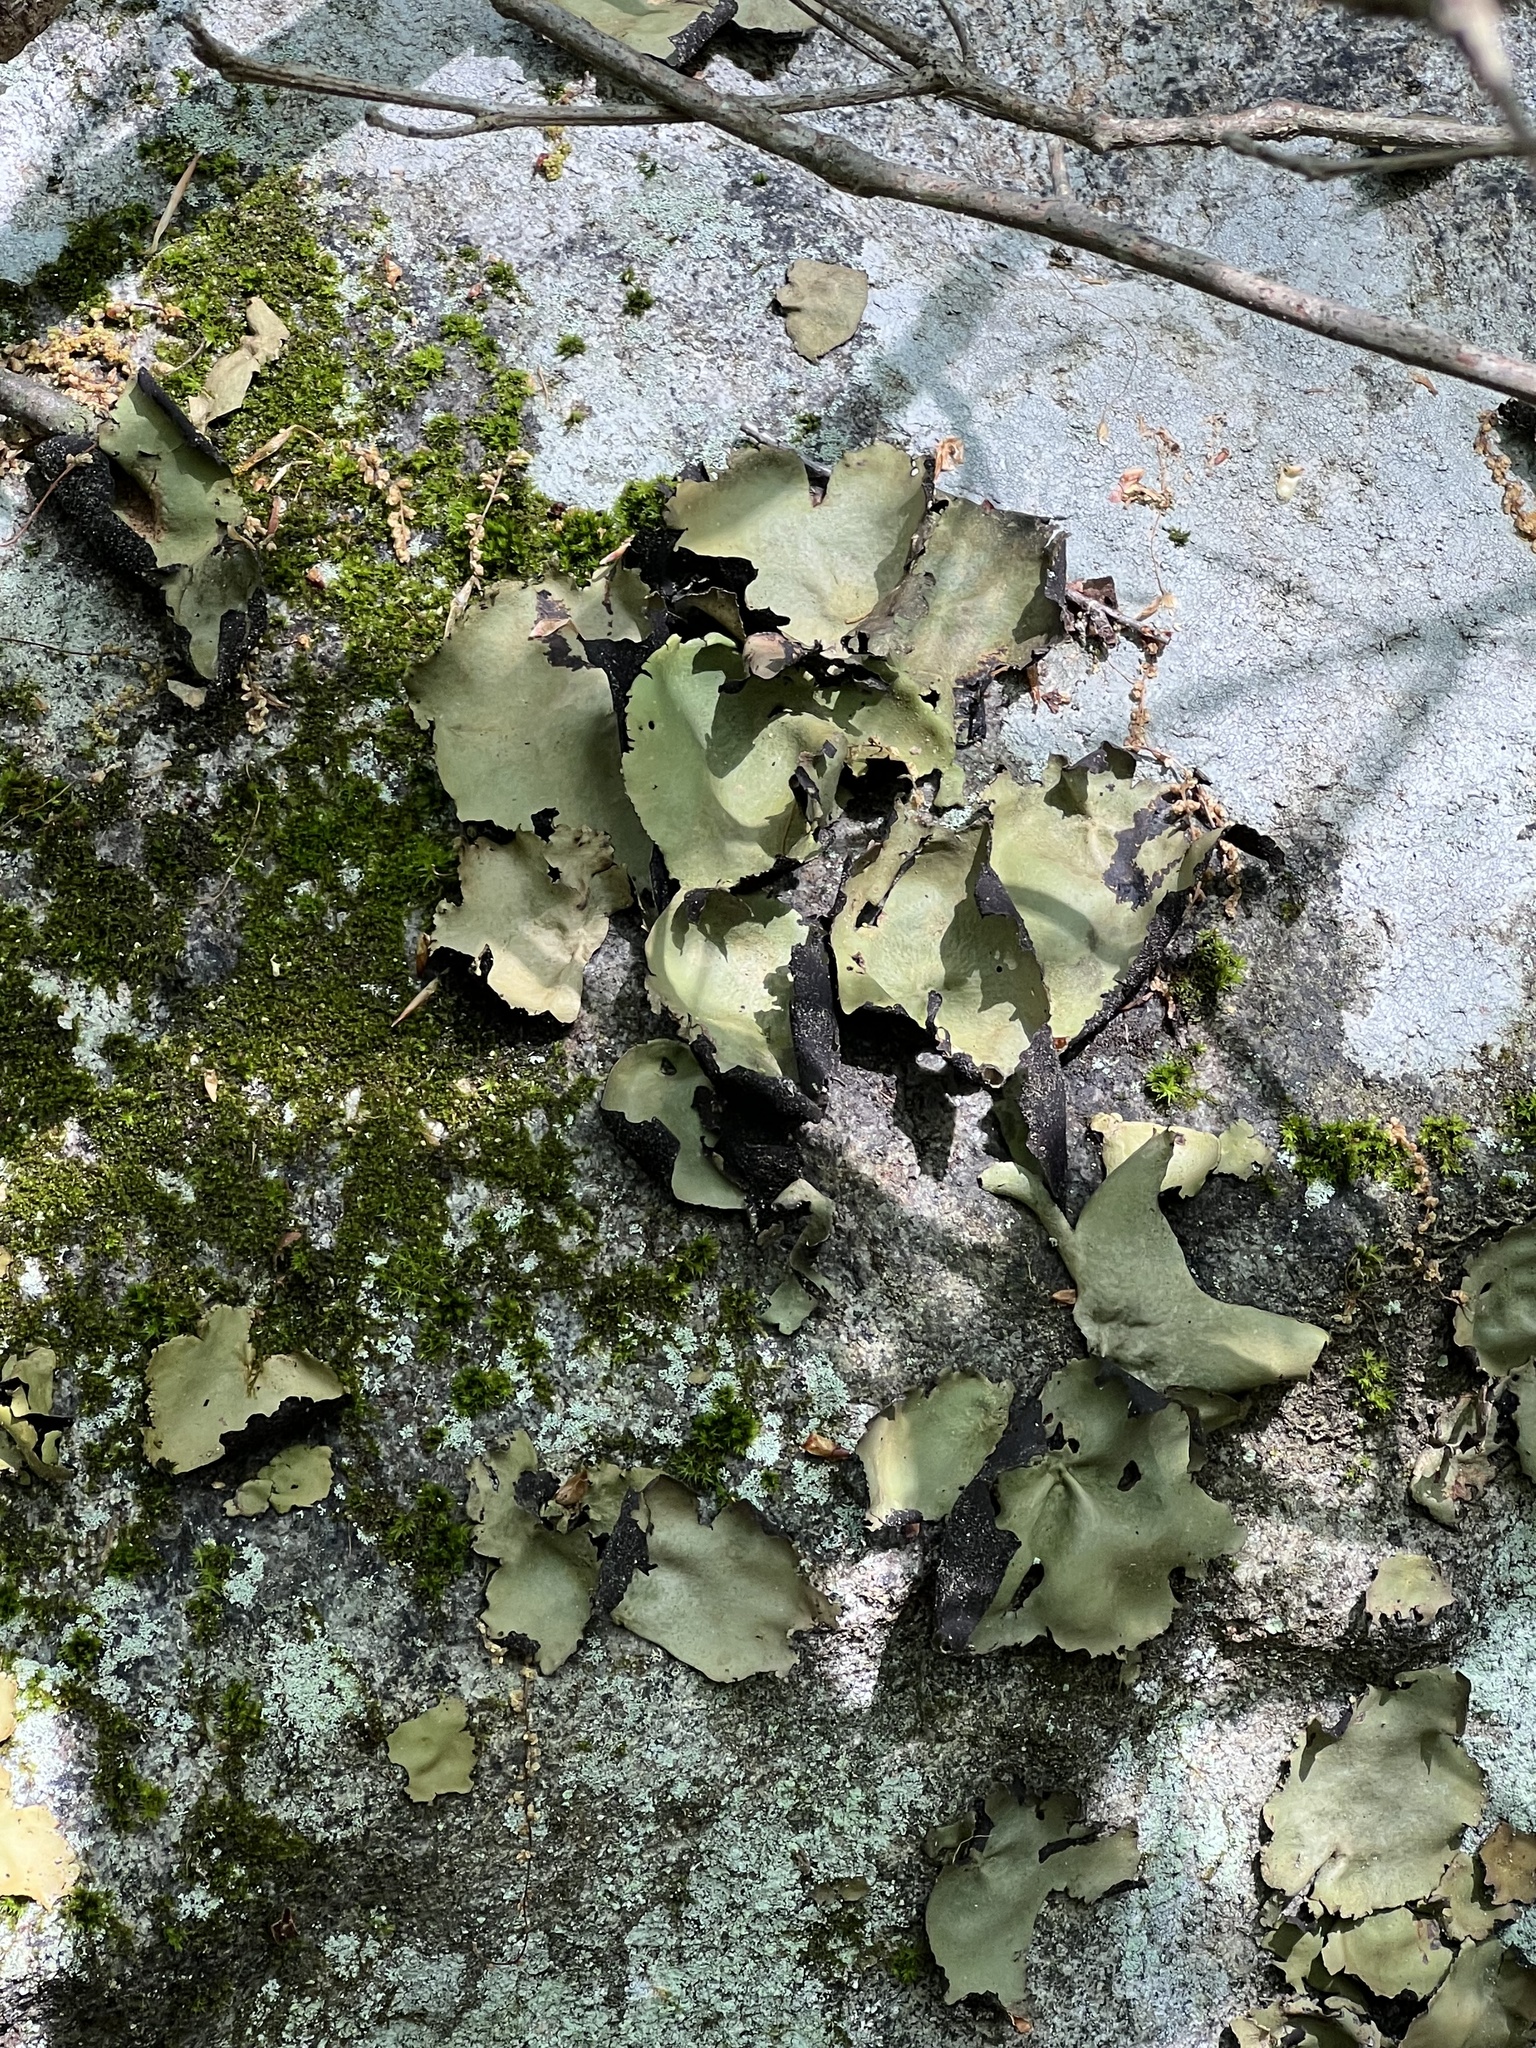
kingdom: Fungi
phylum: Ascomycota
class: Lecanoromycetes
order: Umbilicariales
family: Umbilicariaceae
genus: Umbilicaria
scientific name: Umbilicaria mammulata
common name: Smooth rock tripe
